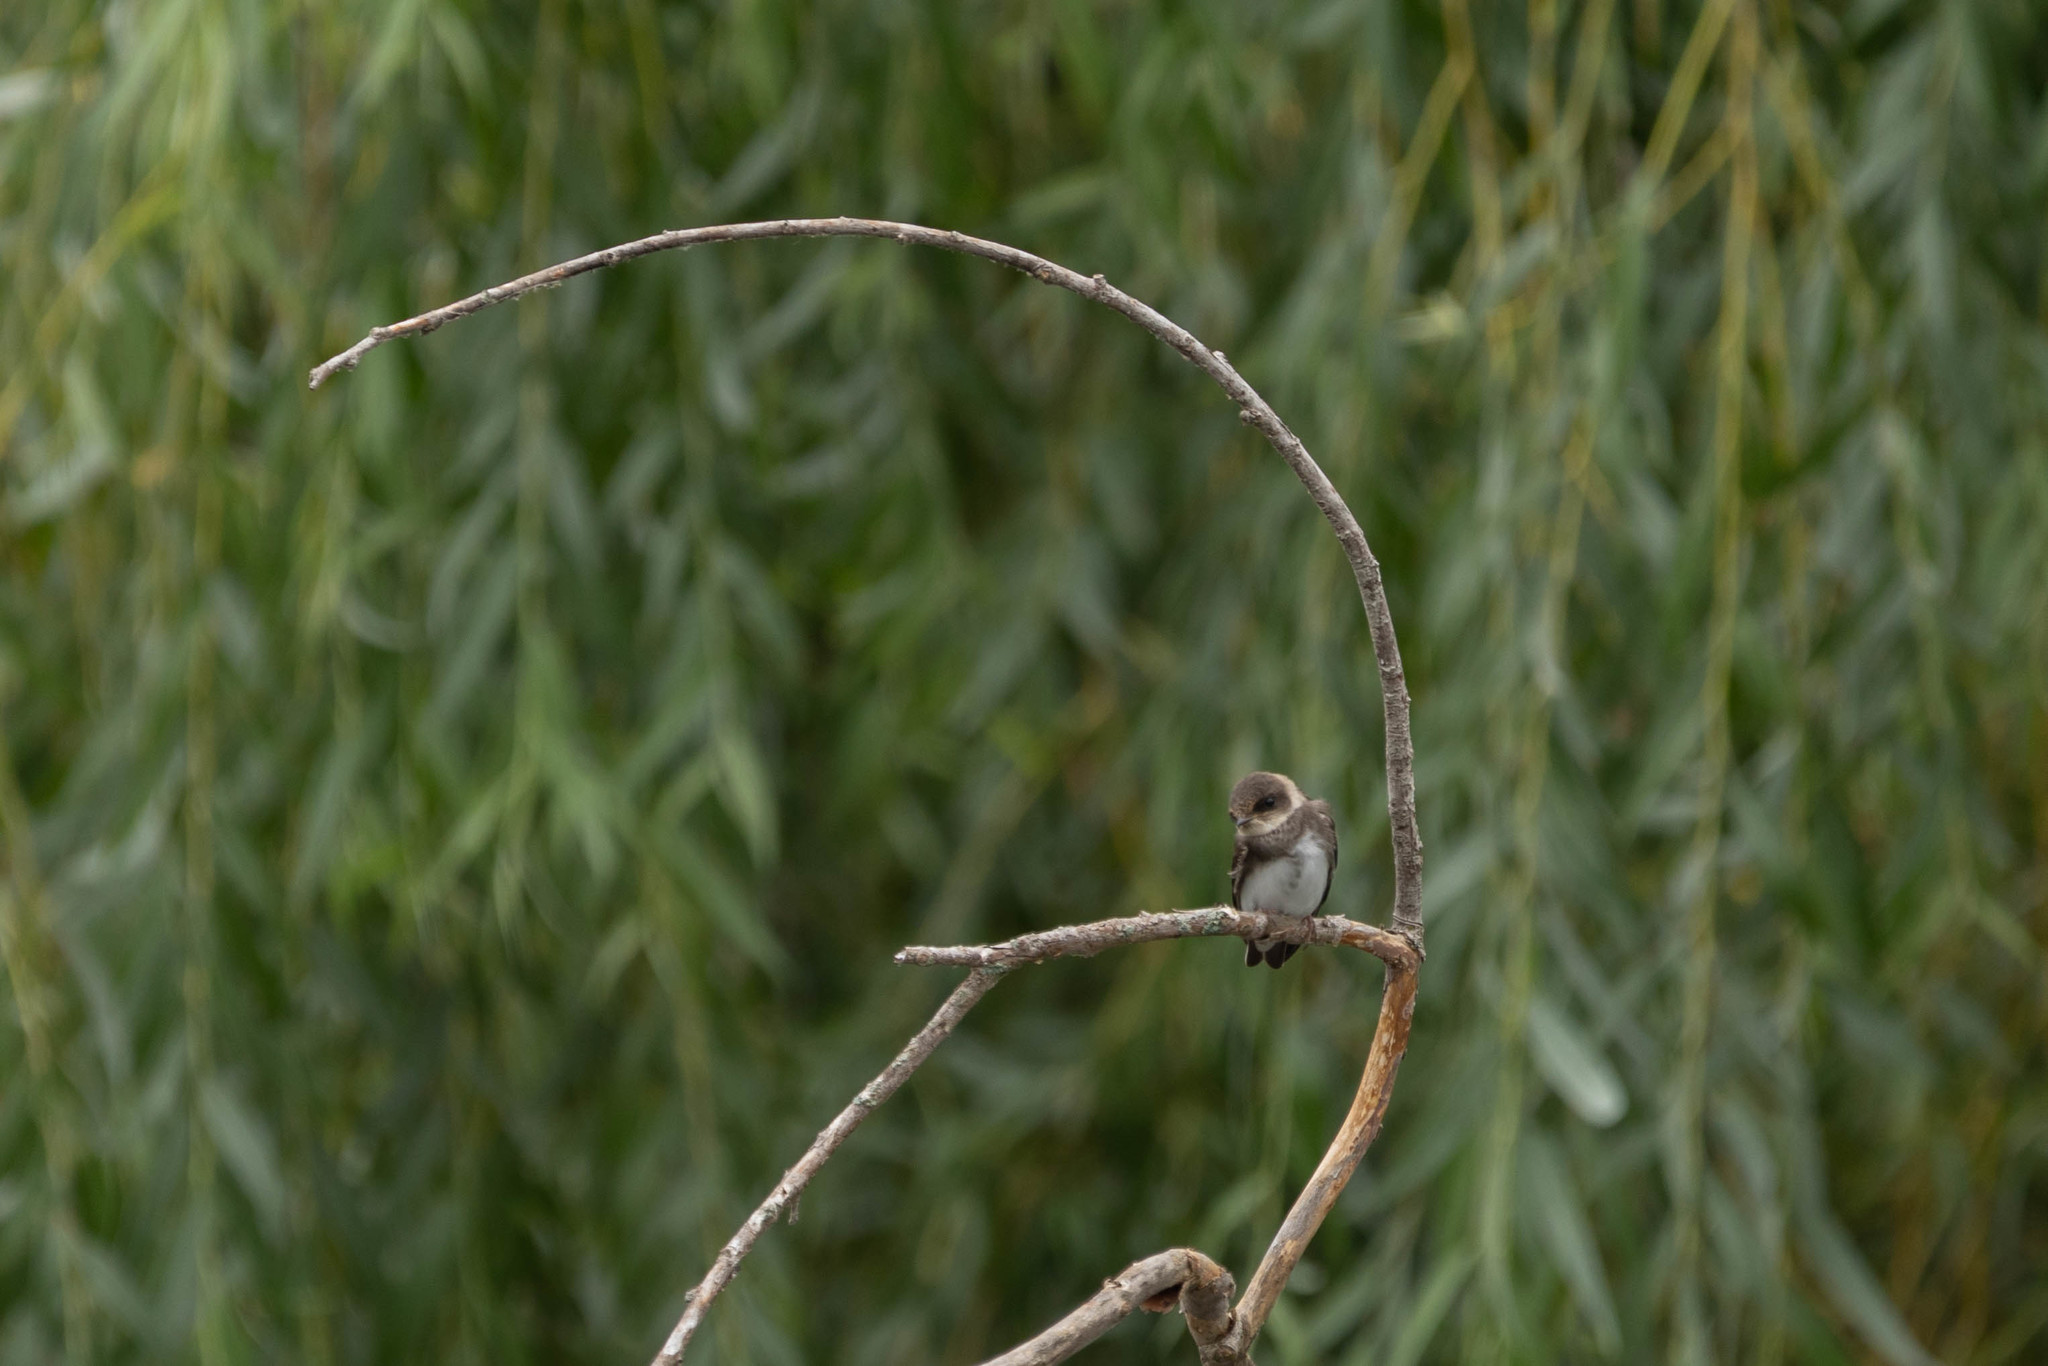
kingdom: Animalia
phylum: Chordata
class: Aves
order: Passeriformes
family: Hirundinidae
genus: Riparia
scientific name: Riparia riparia
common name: Sand martin
